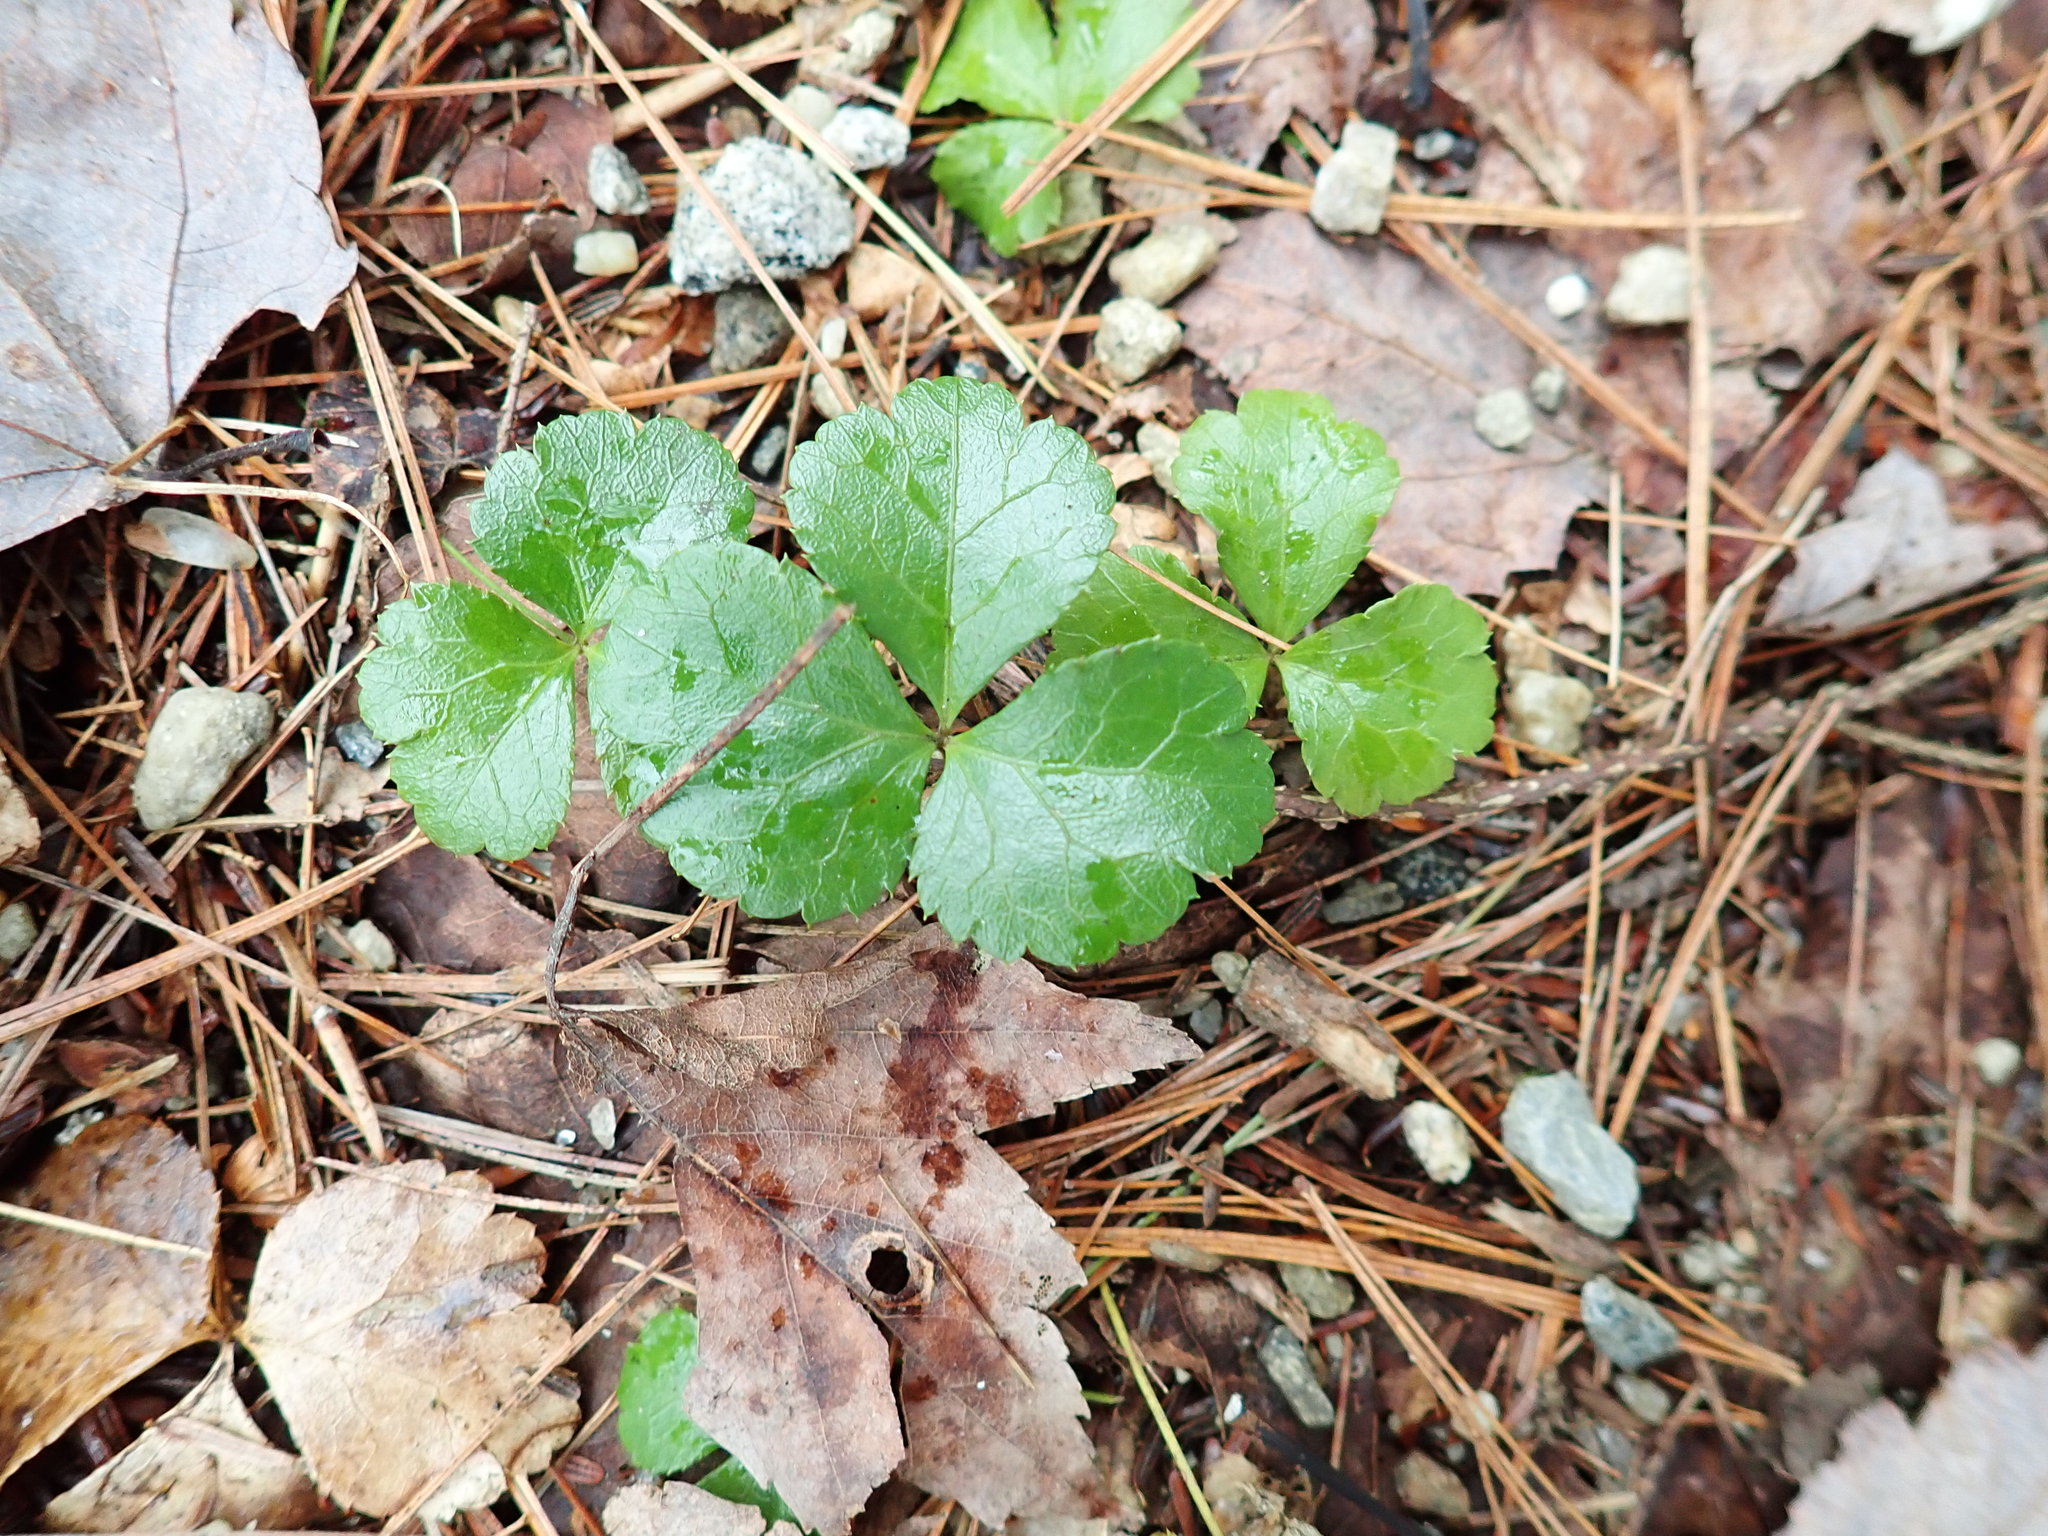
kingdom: Plantae
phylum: Tracheophyta
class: Magnoliopsida
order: Ranunculales
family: Ranunculaceae
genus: Coptis
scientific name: Coptis trifolia
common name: Canker-root
